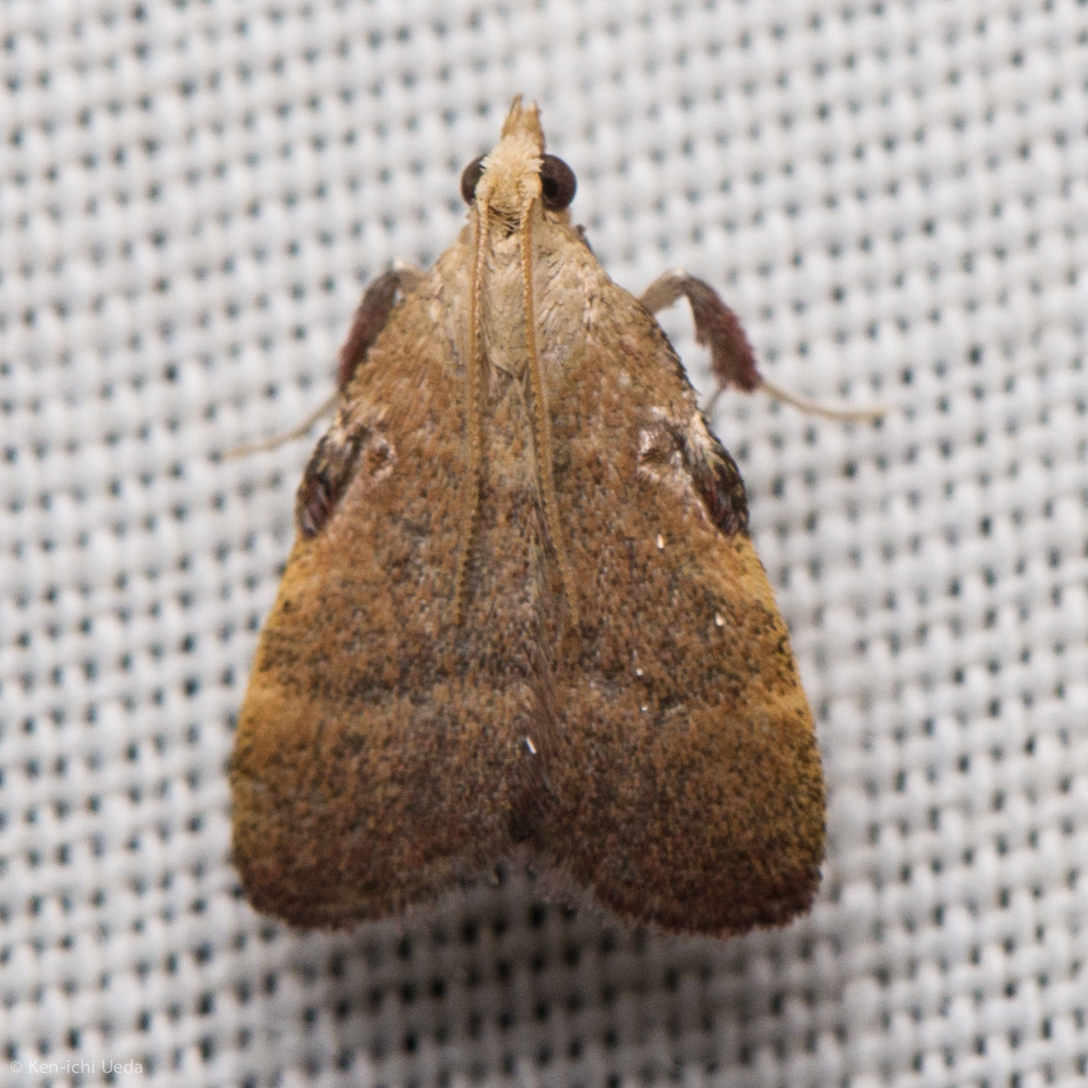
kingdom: Animalia
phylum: Arthropoda
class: Insecta
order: Lepidoptera
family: Pyralidae
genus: Condylolomia
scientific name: Condylolomia participialis
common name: Drab condylolomia moth
